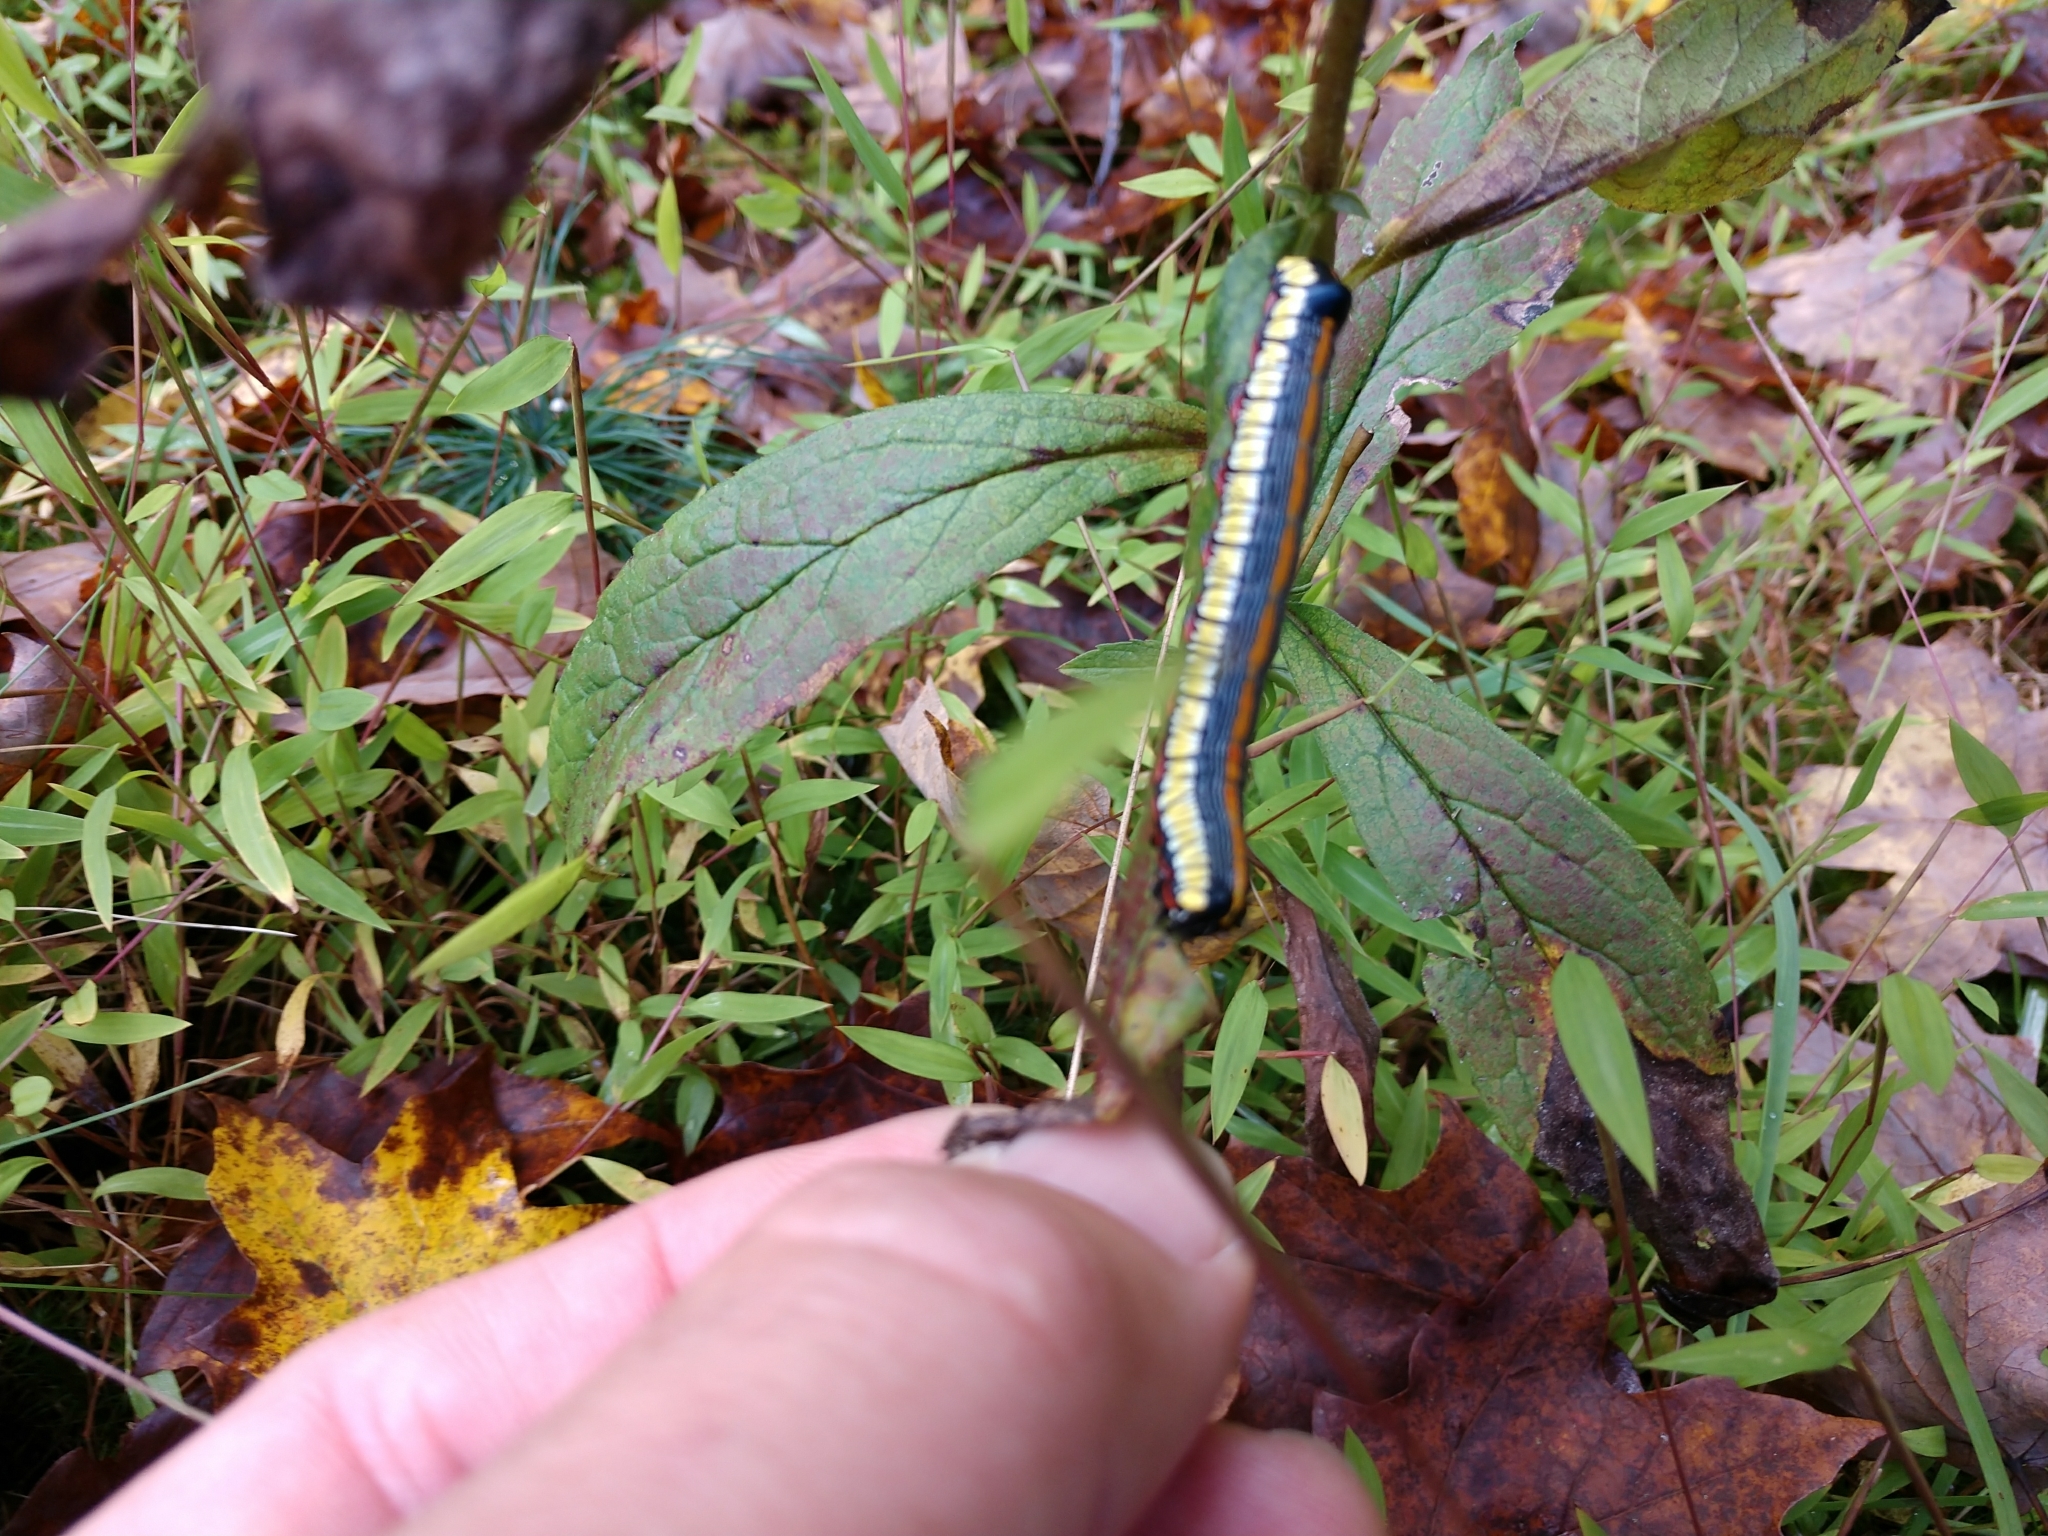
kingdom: Animalia
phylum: Arthropoda
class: Insecta
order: Lepidoptera
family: Noctuidae
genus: Cucullia
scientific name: Cucullia convexipennis
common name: Brown-hooded owlet
